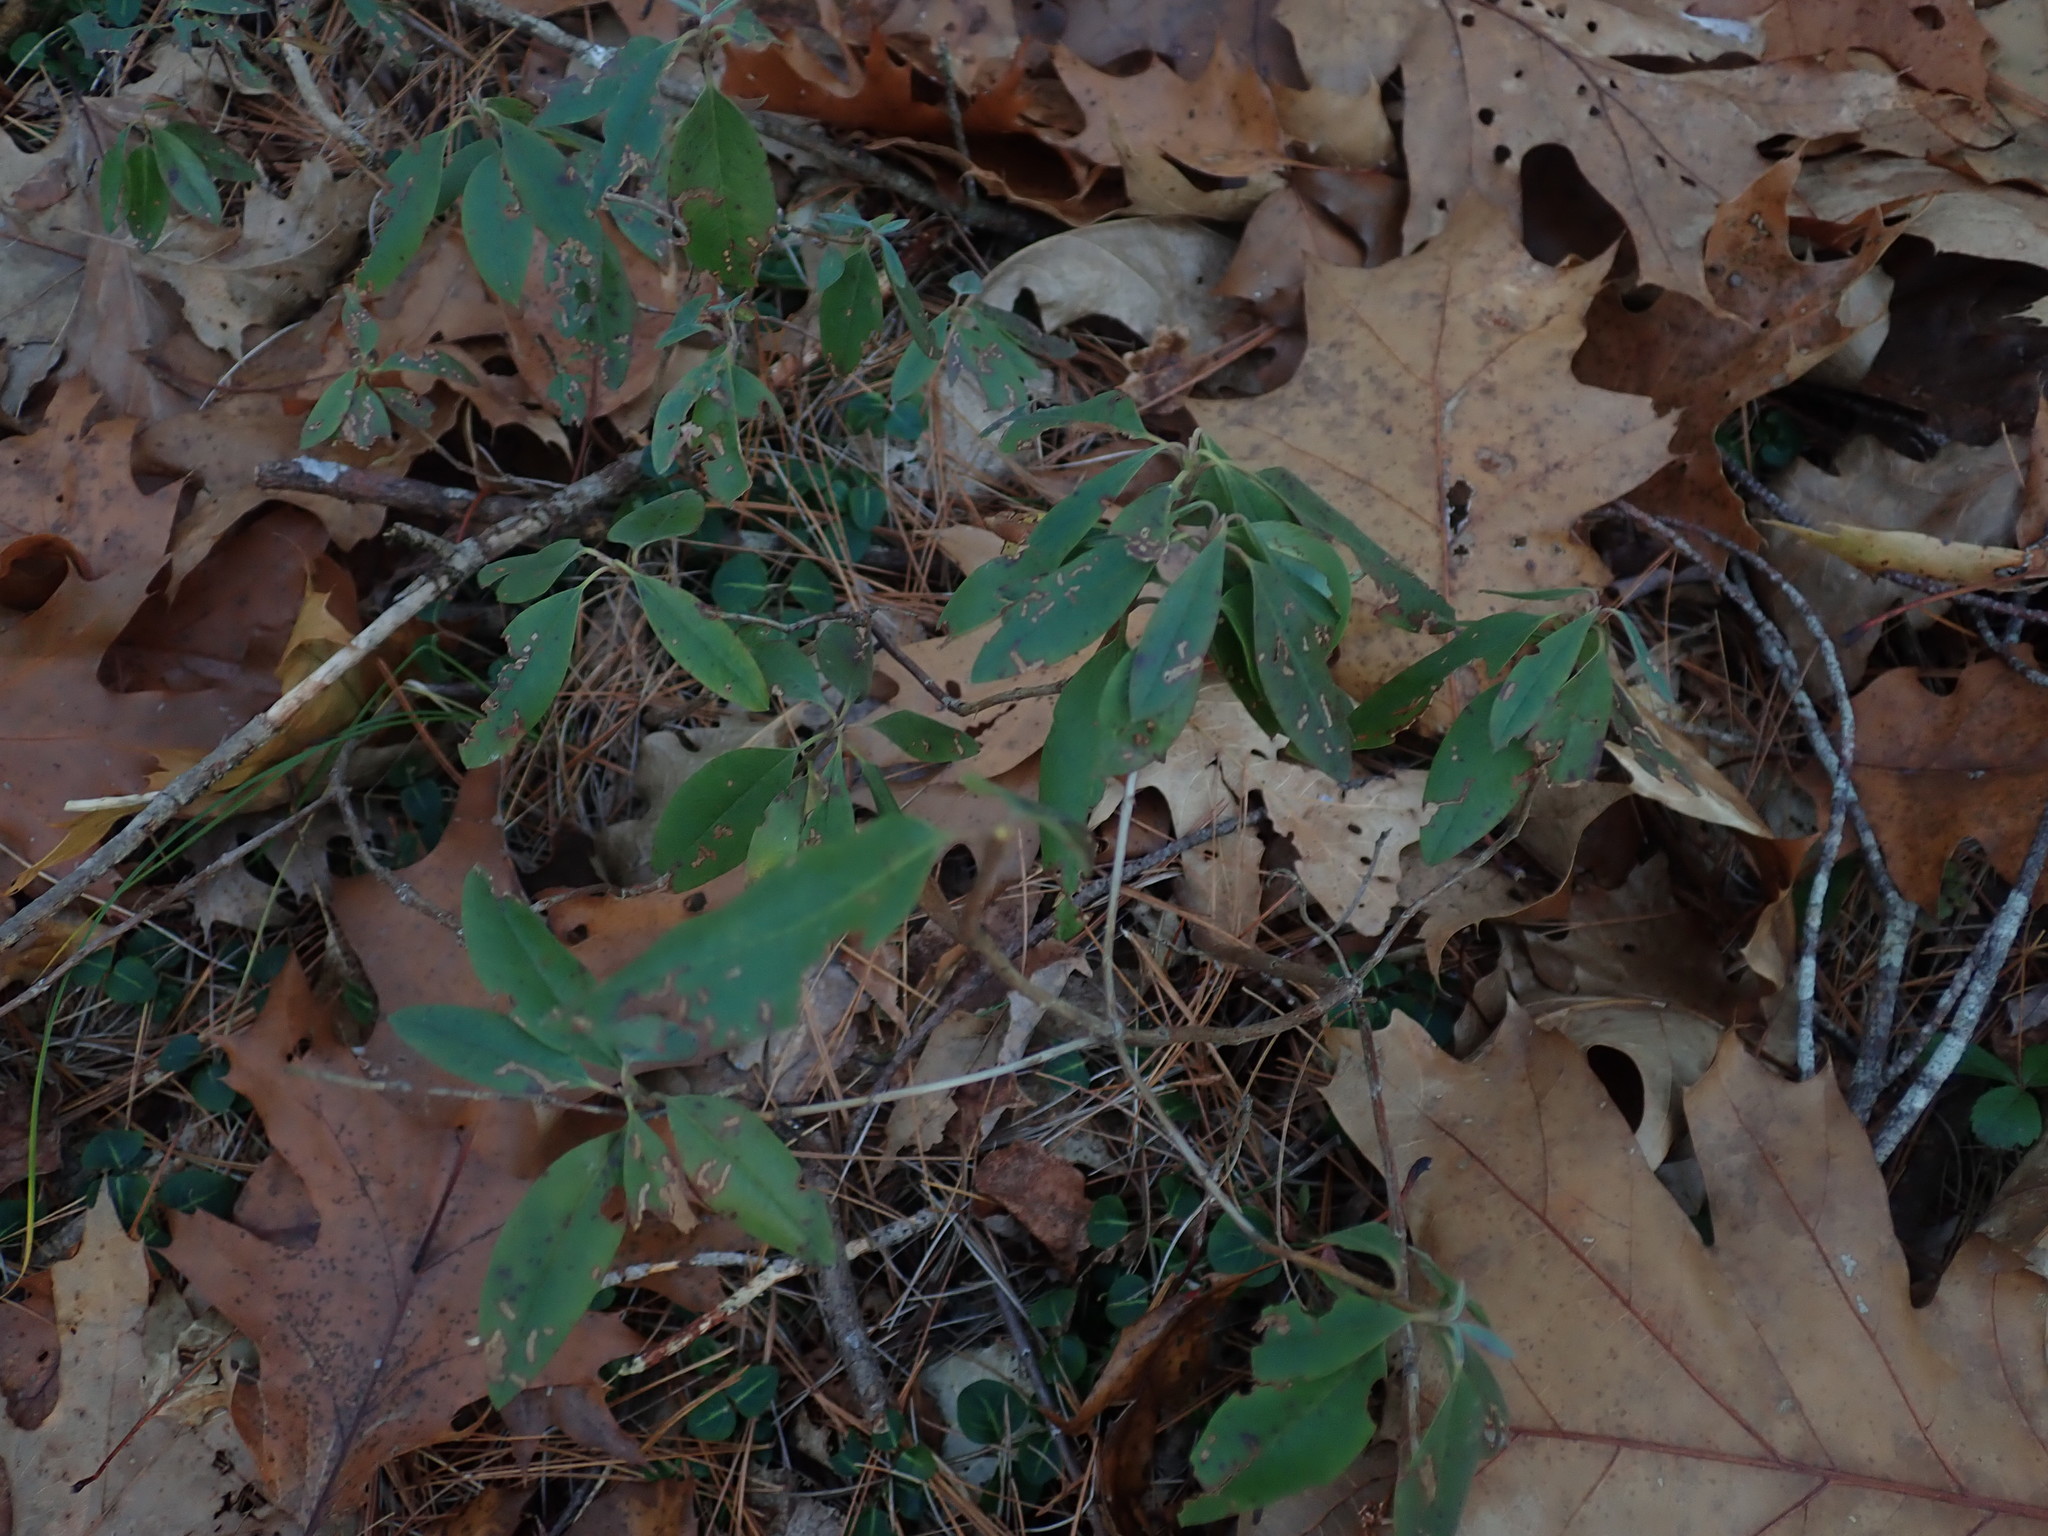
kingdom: Plantae
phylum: Tracheophyta
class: Magnoliopsida
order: Ericales
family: Ericaceae
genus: Kalmia
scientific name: Kalmia angustifolia
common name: Sheep-laurel
